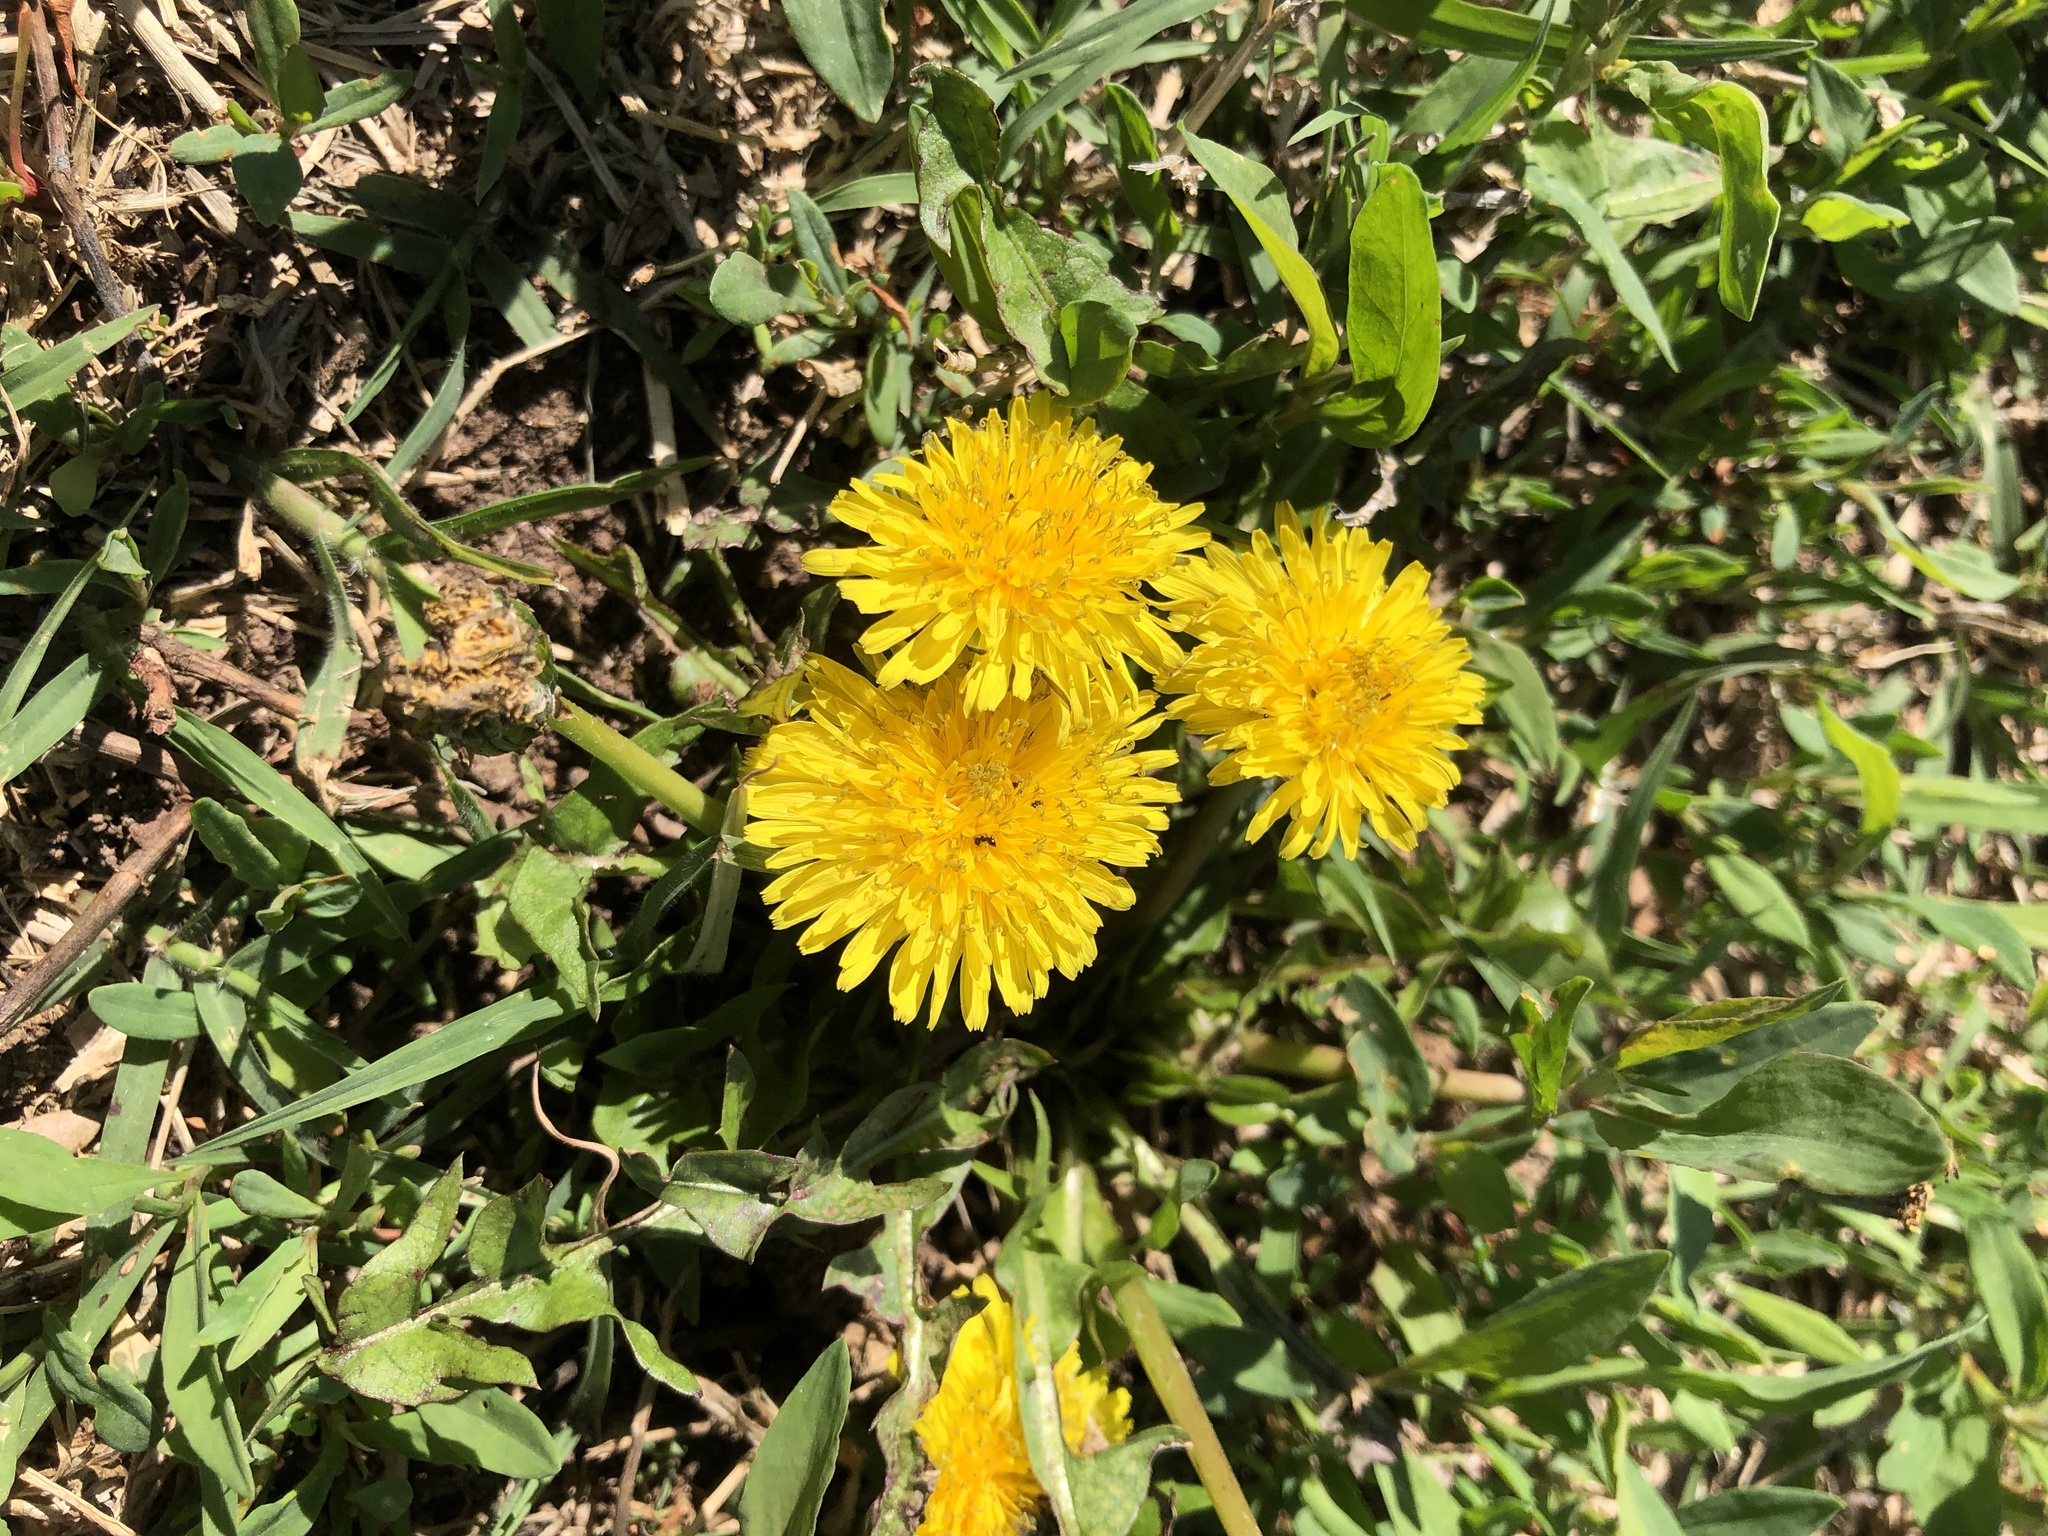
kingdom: Plantae
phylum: Tracheophyta
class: Magnoliopsida
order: Asterales
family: Asteraceae
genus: Taraxacum
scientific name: Taraxacum
